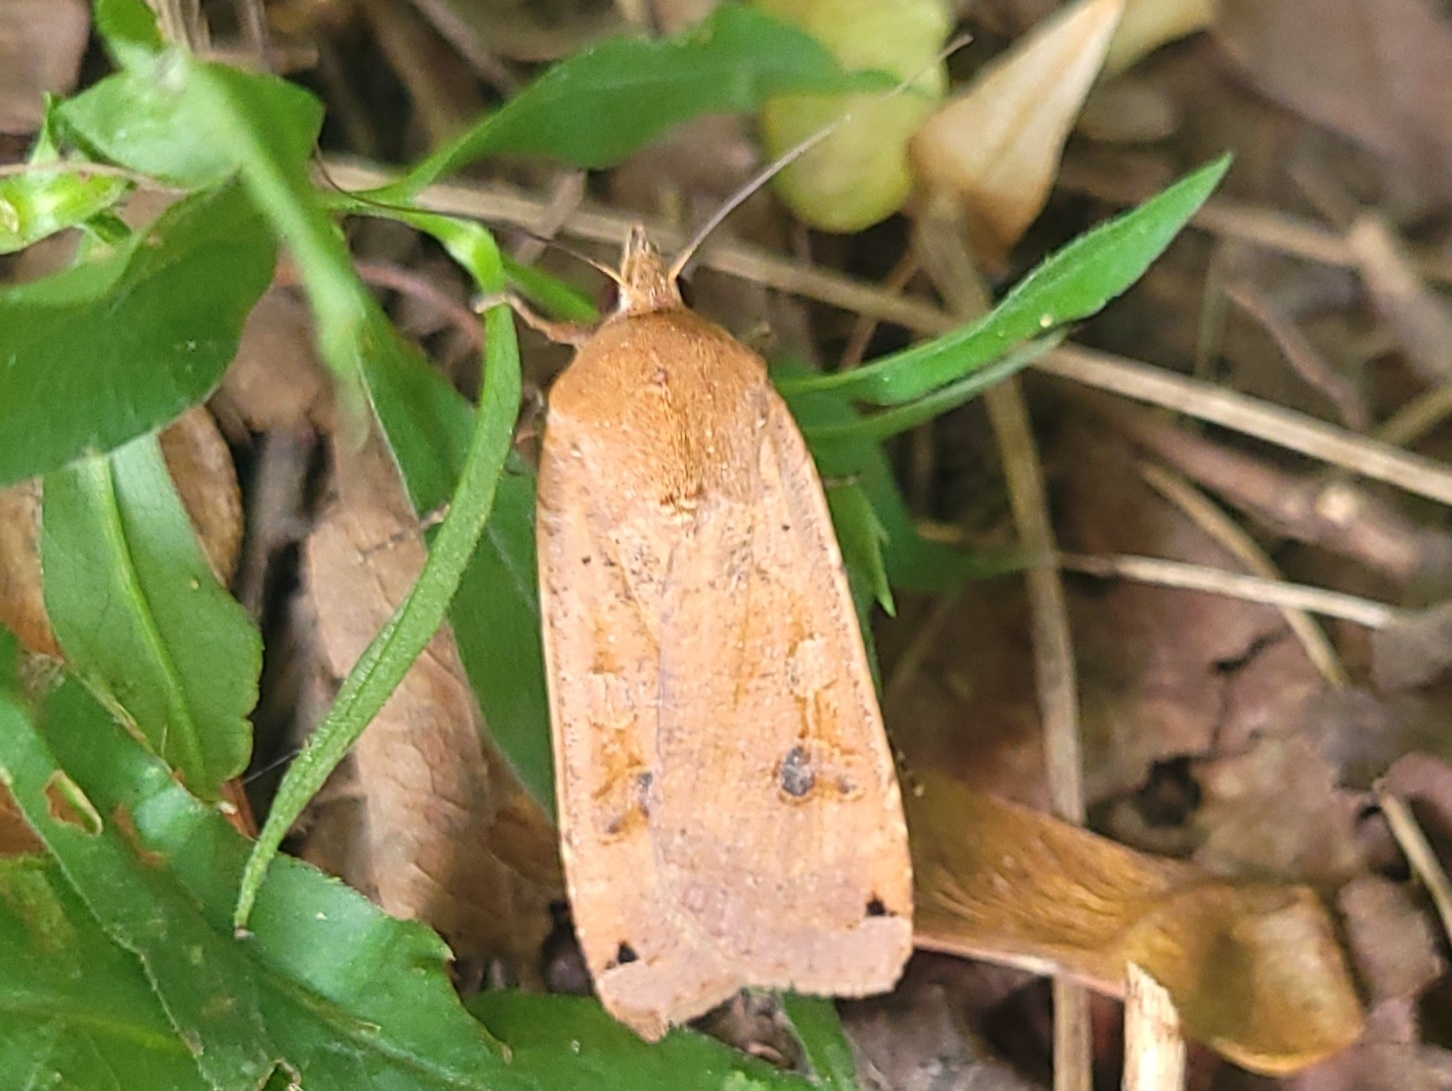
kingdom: Animalia
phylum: Arthropoda
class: Insecta
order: Lepidoptera
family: Noctuidae
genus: Noctua
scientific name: Noctua pronuba
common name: Large yellow underwing
